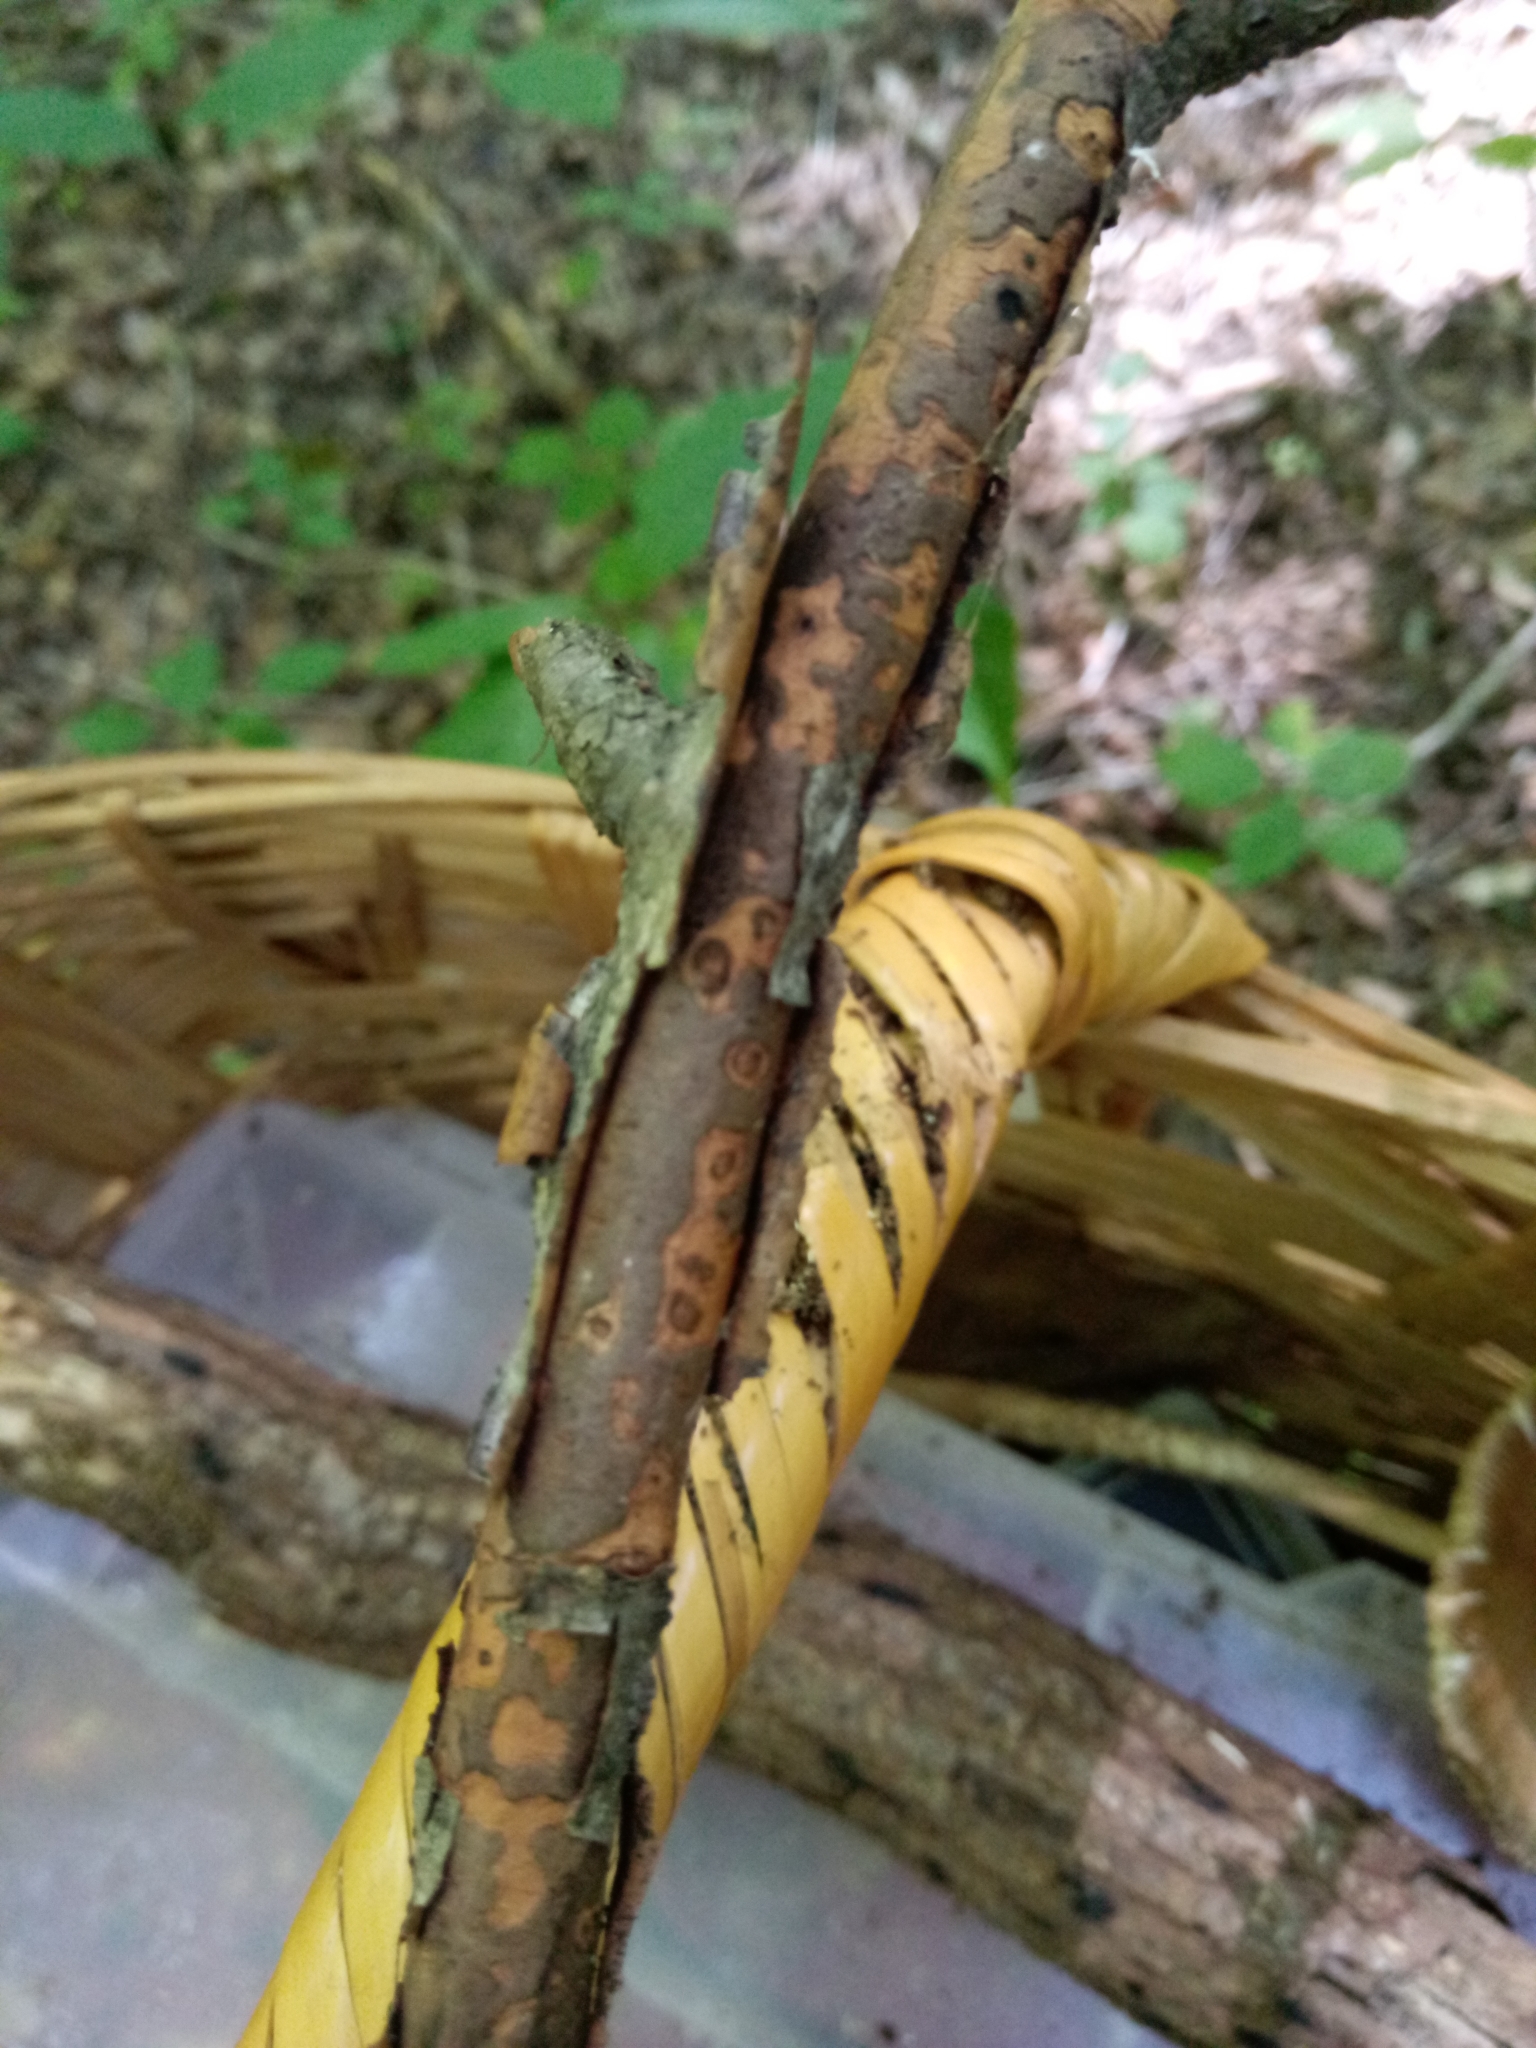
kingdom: Fungi
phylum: Ascomycota
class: Sordariomycetes
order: Xylariales
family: Diatrypaceae
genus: Diatrype
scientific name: Diatrype decorticata
